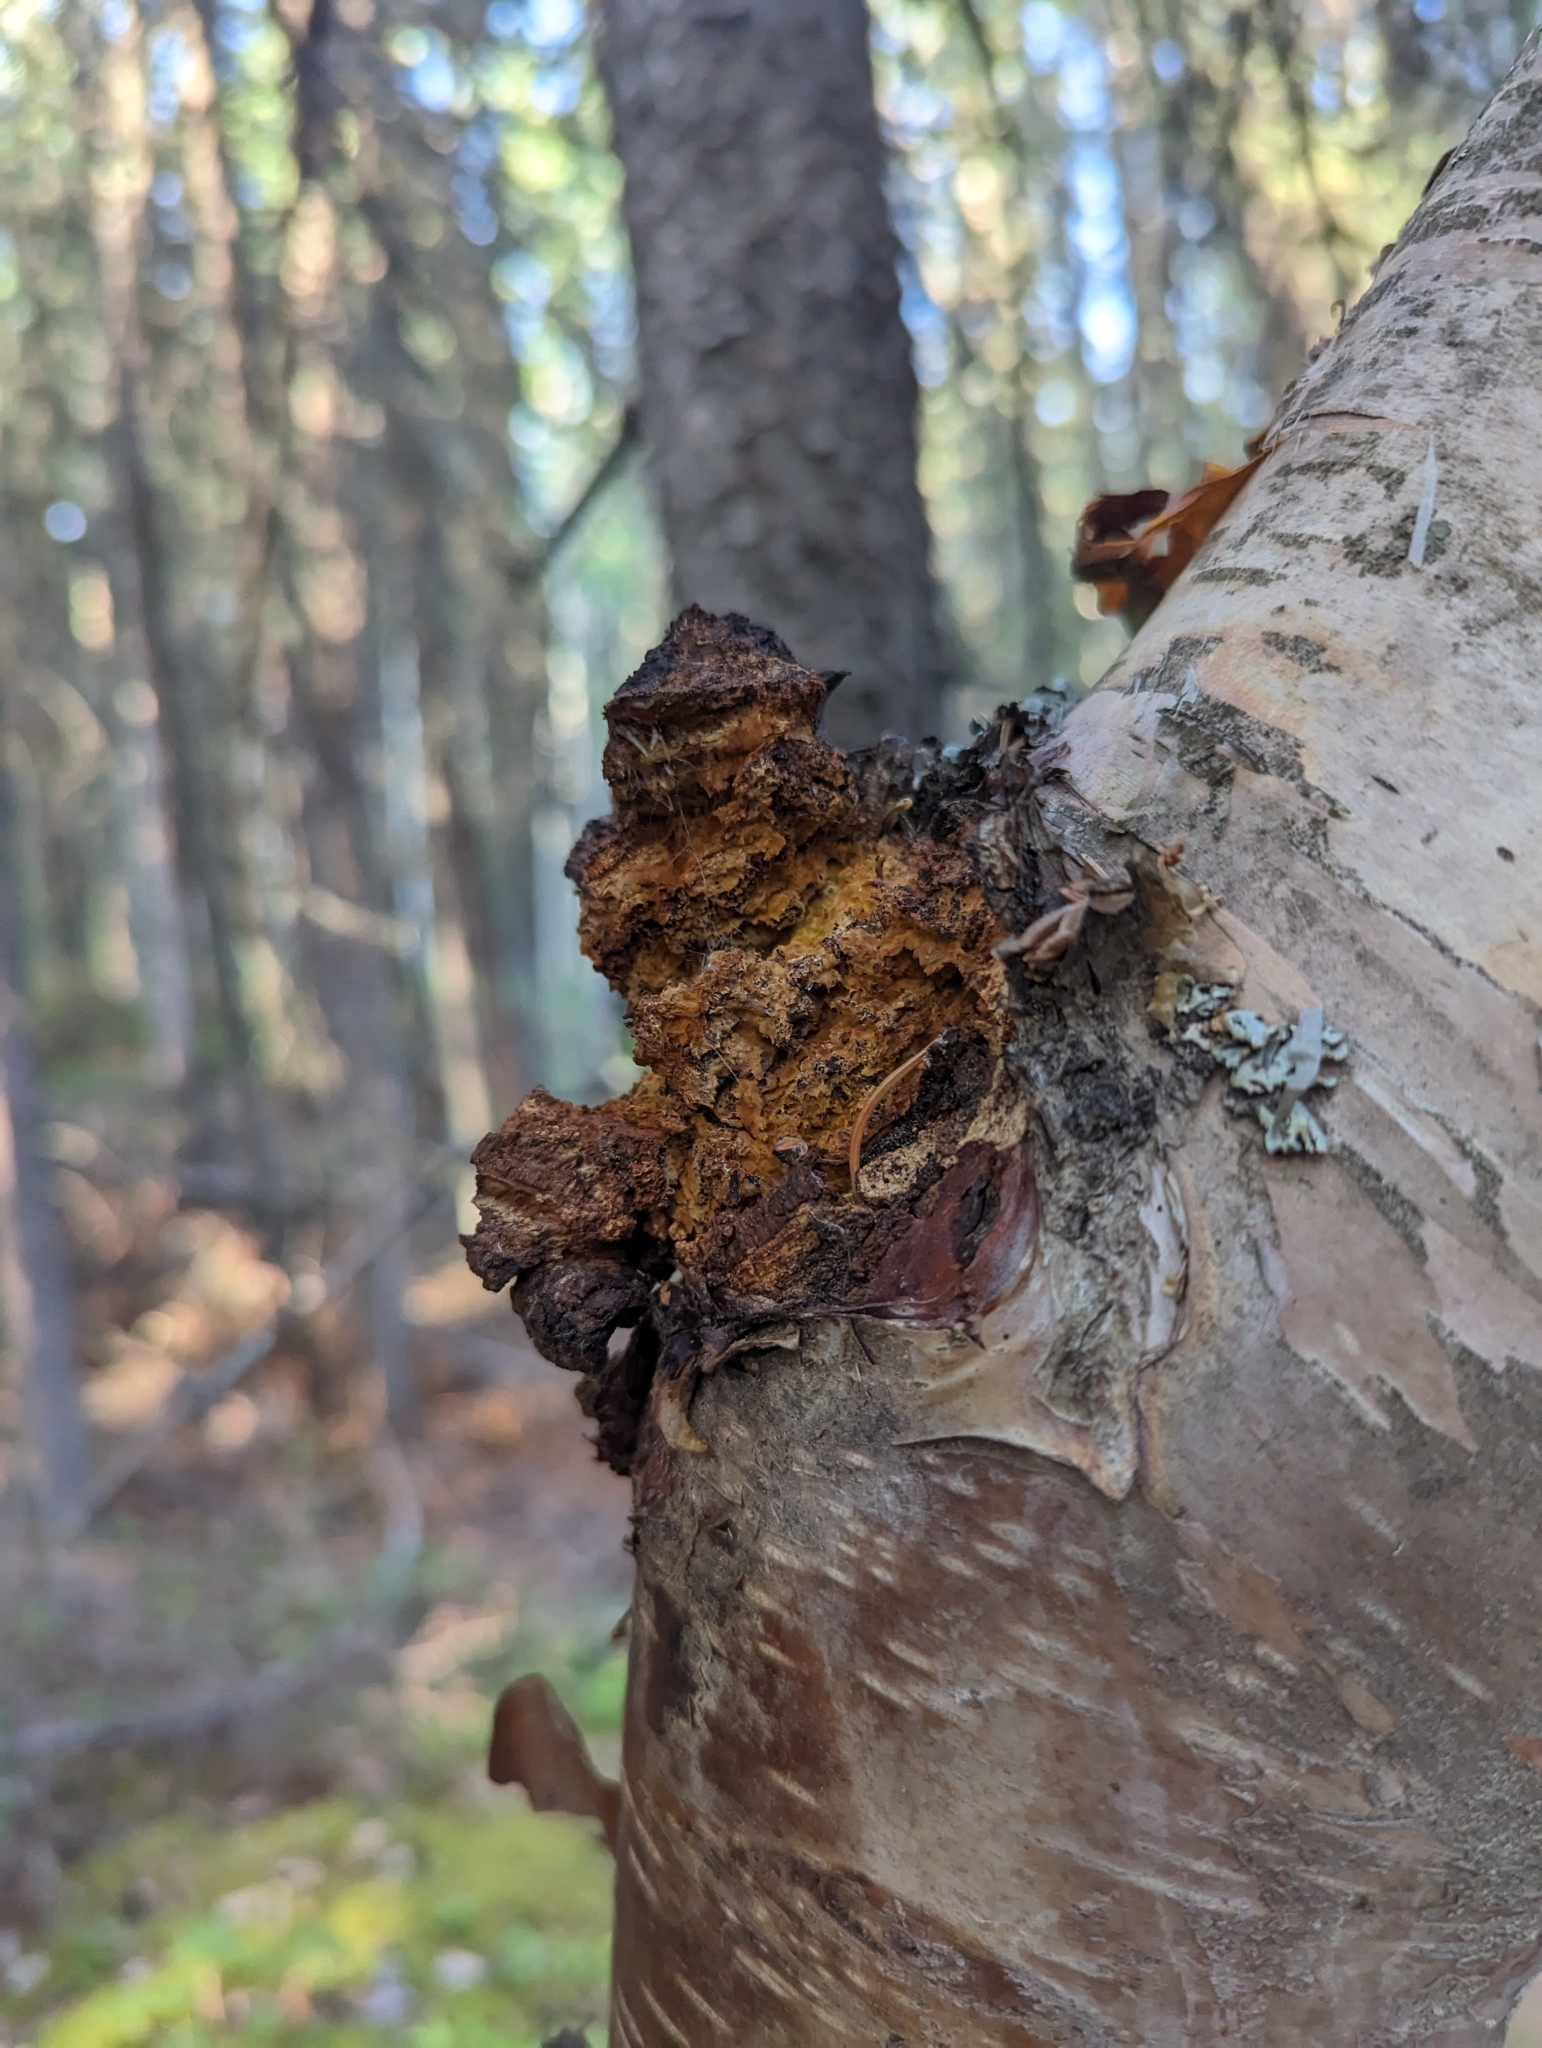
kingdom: Fungi
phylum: Basidiomycota
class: Agaricomycetes
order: Hymenochaetales
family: Hymenochaetaceae
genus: Inonotus
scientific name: Inonotus obliquus
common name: Chaga
